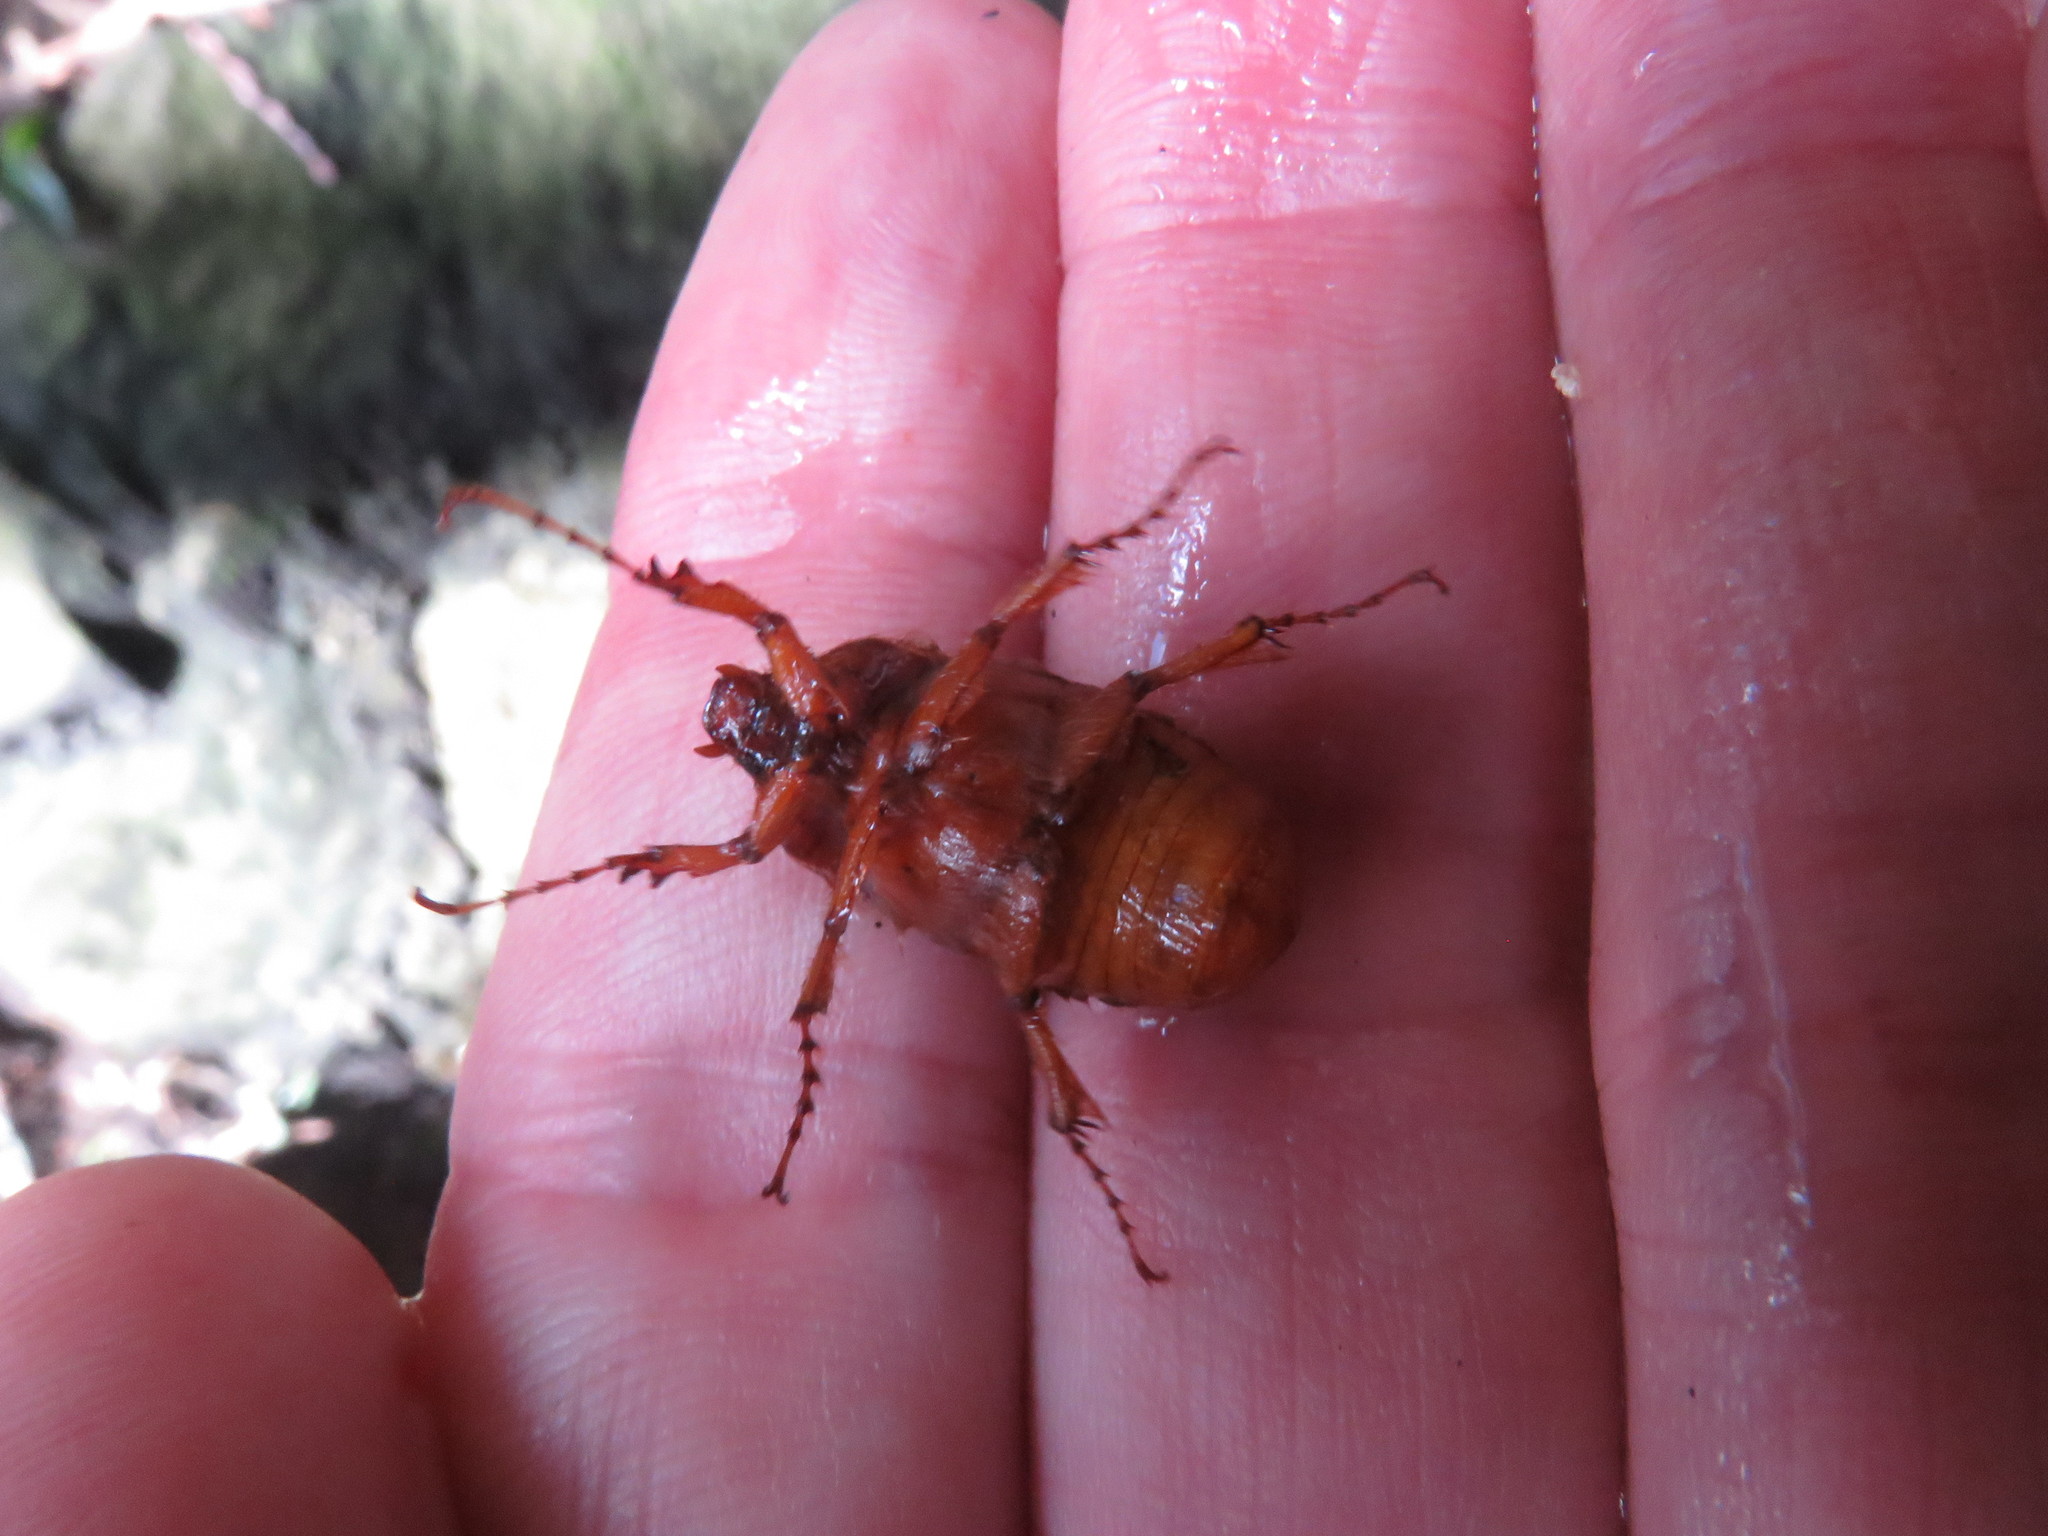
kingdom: Animalia
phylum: Arthropoda
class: Insecta
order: Coleoptera
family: Scarabaeidae
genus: Paulosawaya
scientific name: Paulosawaya ursina
